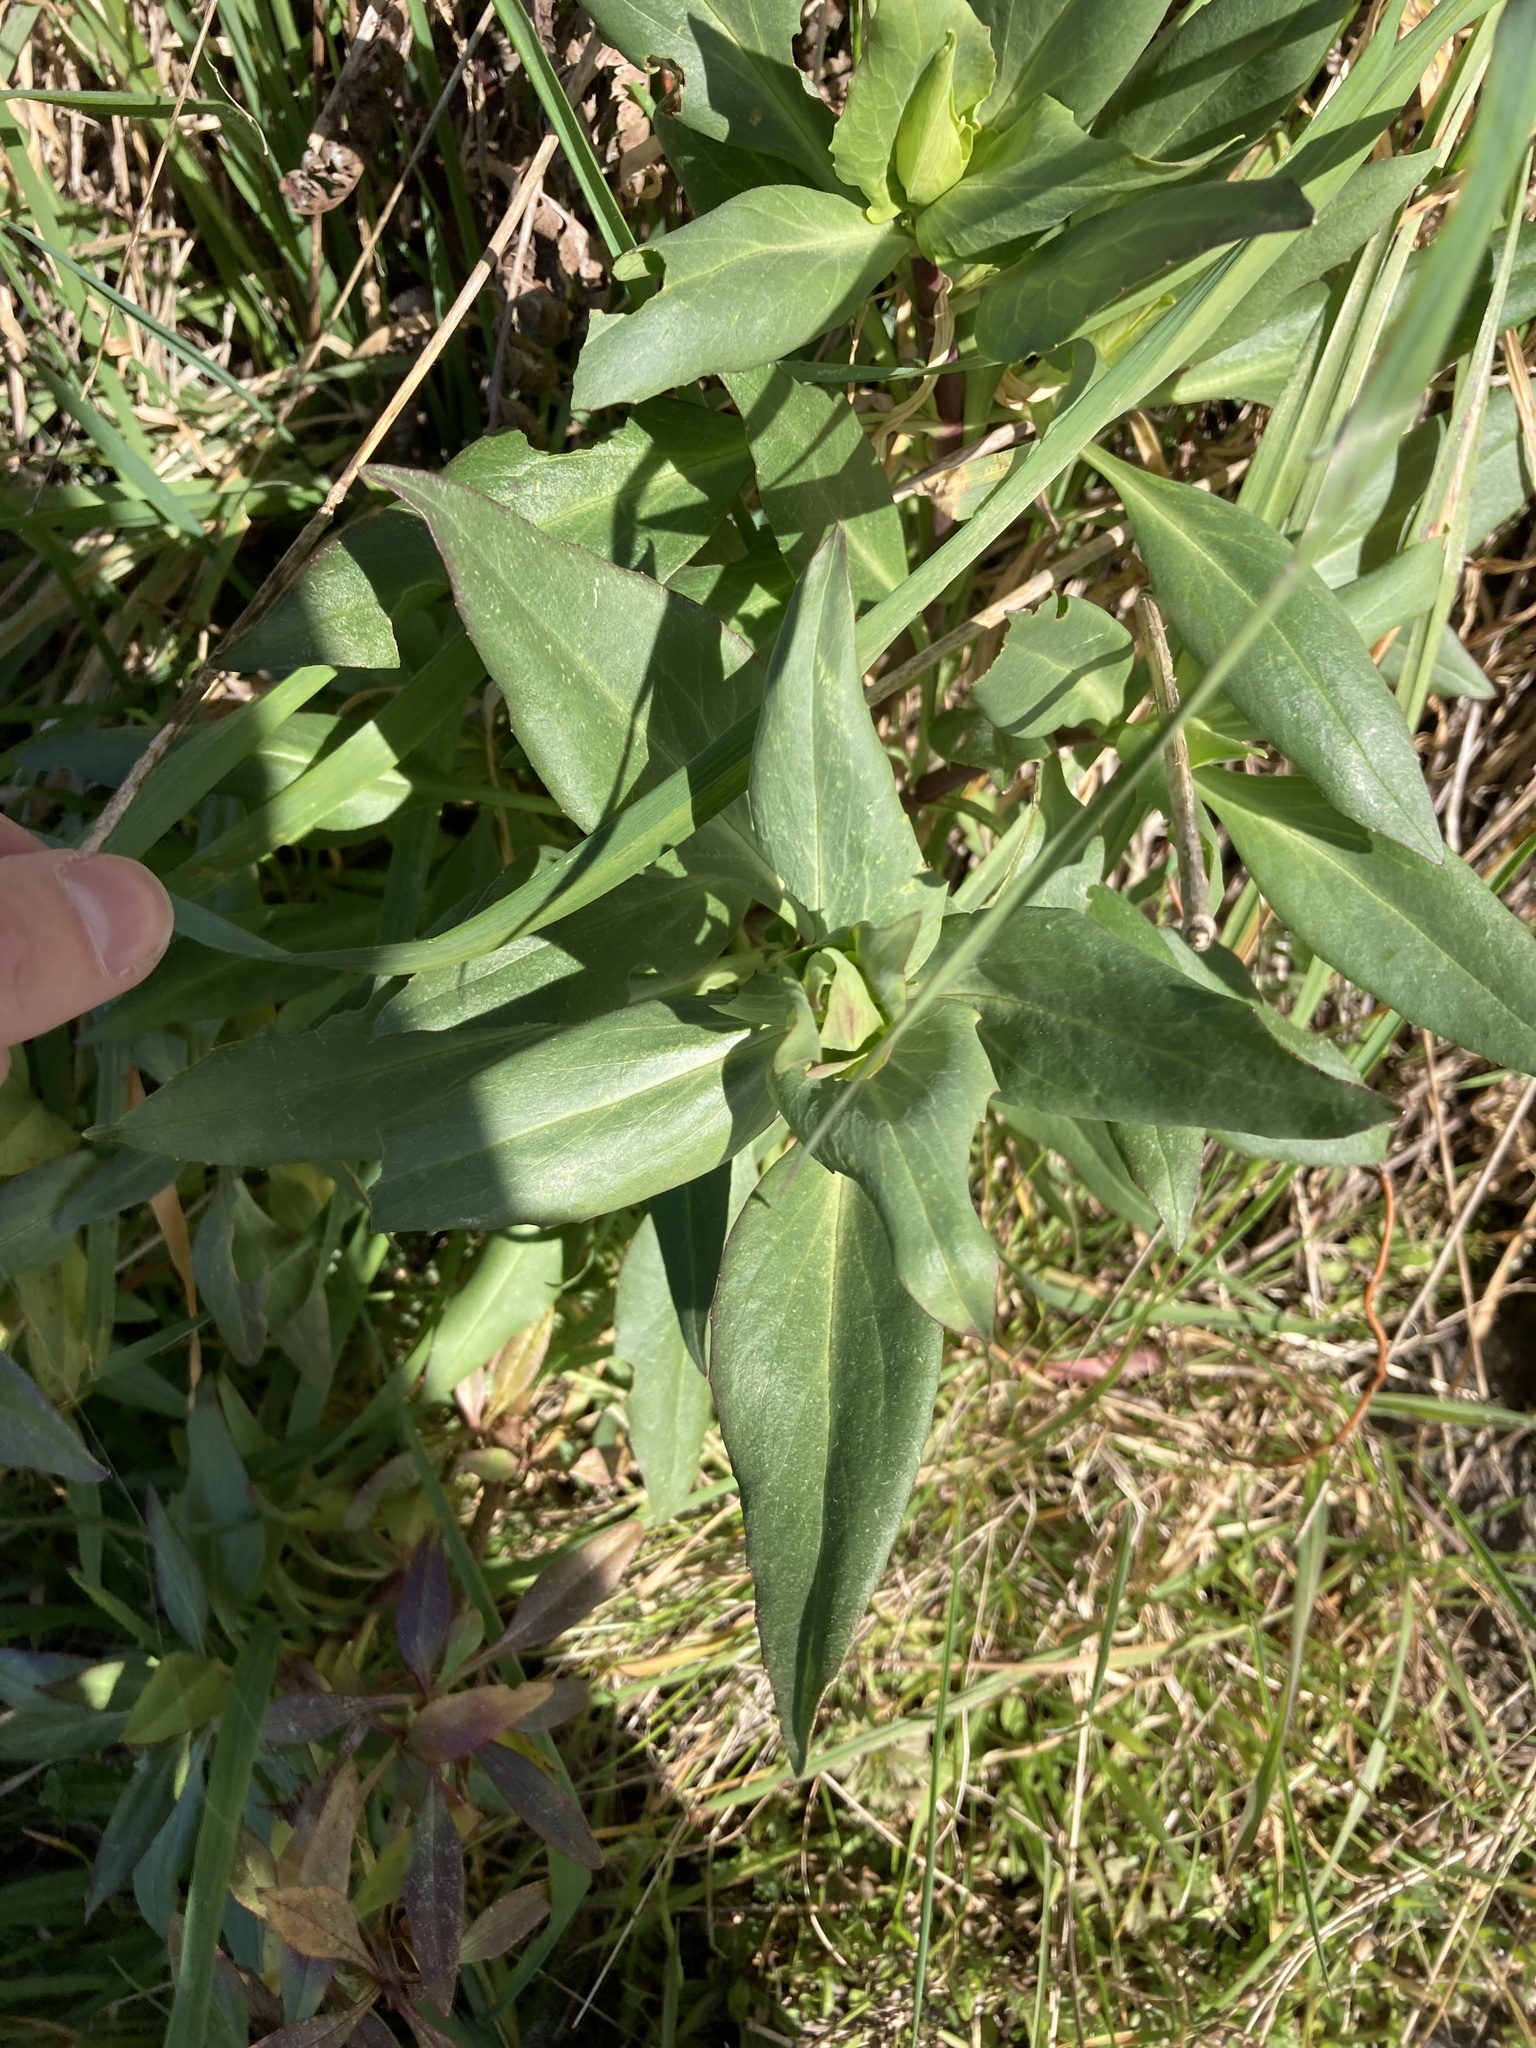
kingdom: Plantae
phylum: Tracheophyta
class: Magnoliopsida
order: Dipsacales
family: Caprifoliaceae
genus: Centranthus
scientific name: Centranthus ruber
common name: Red valerian
